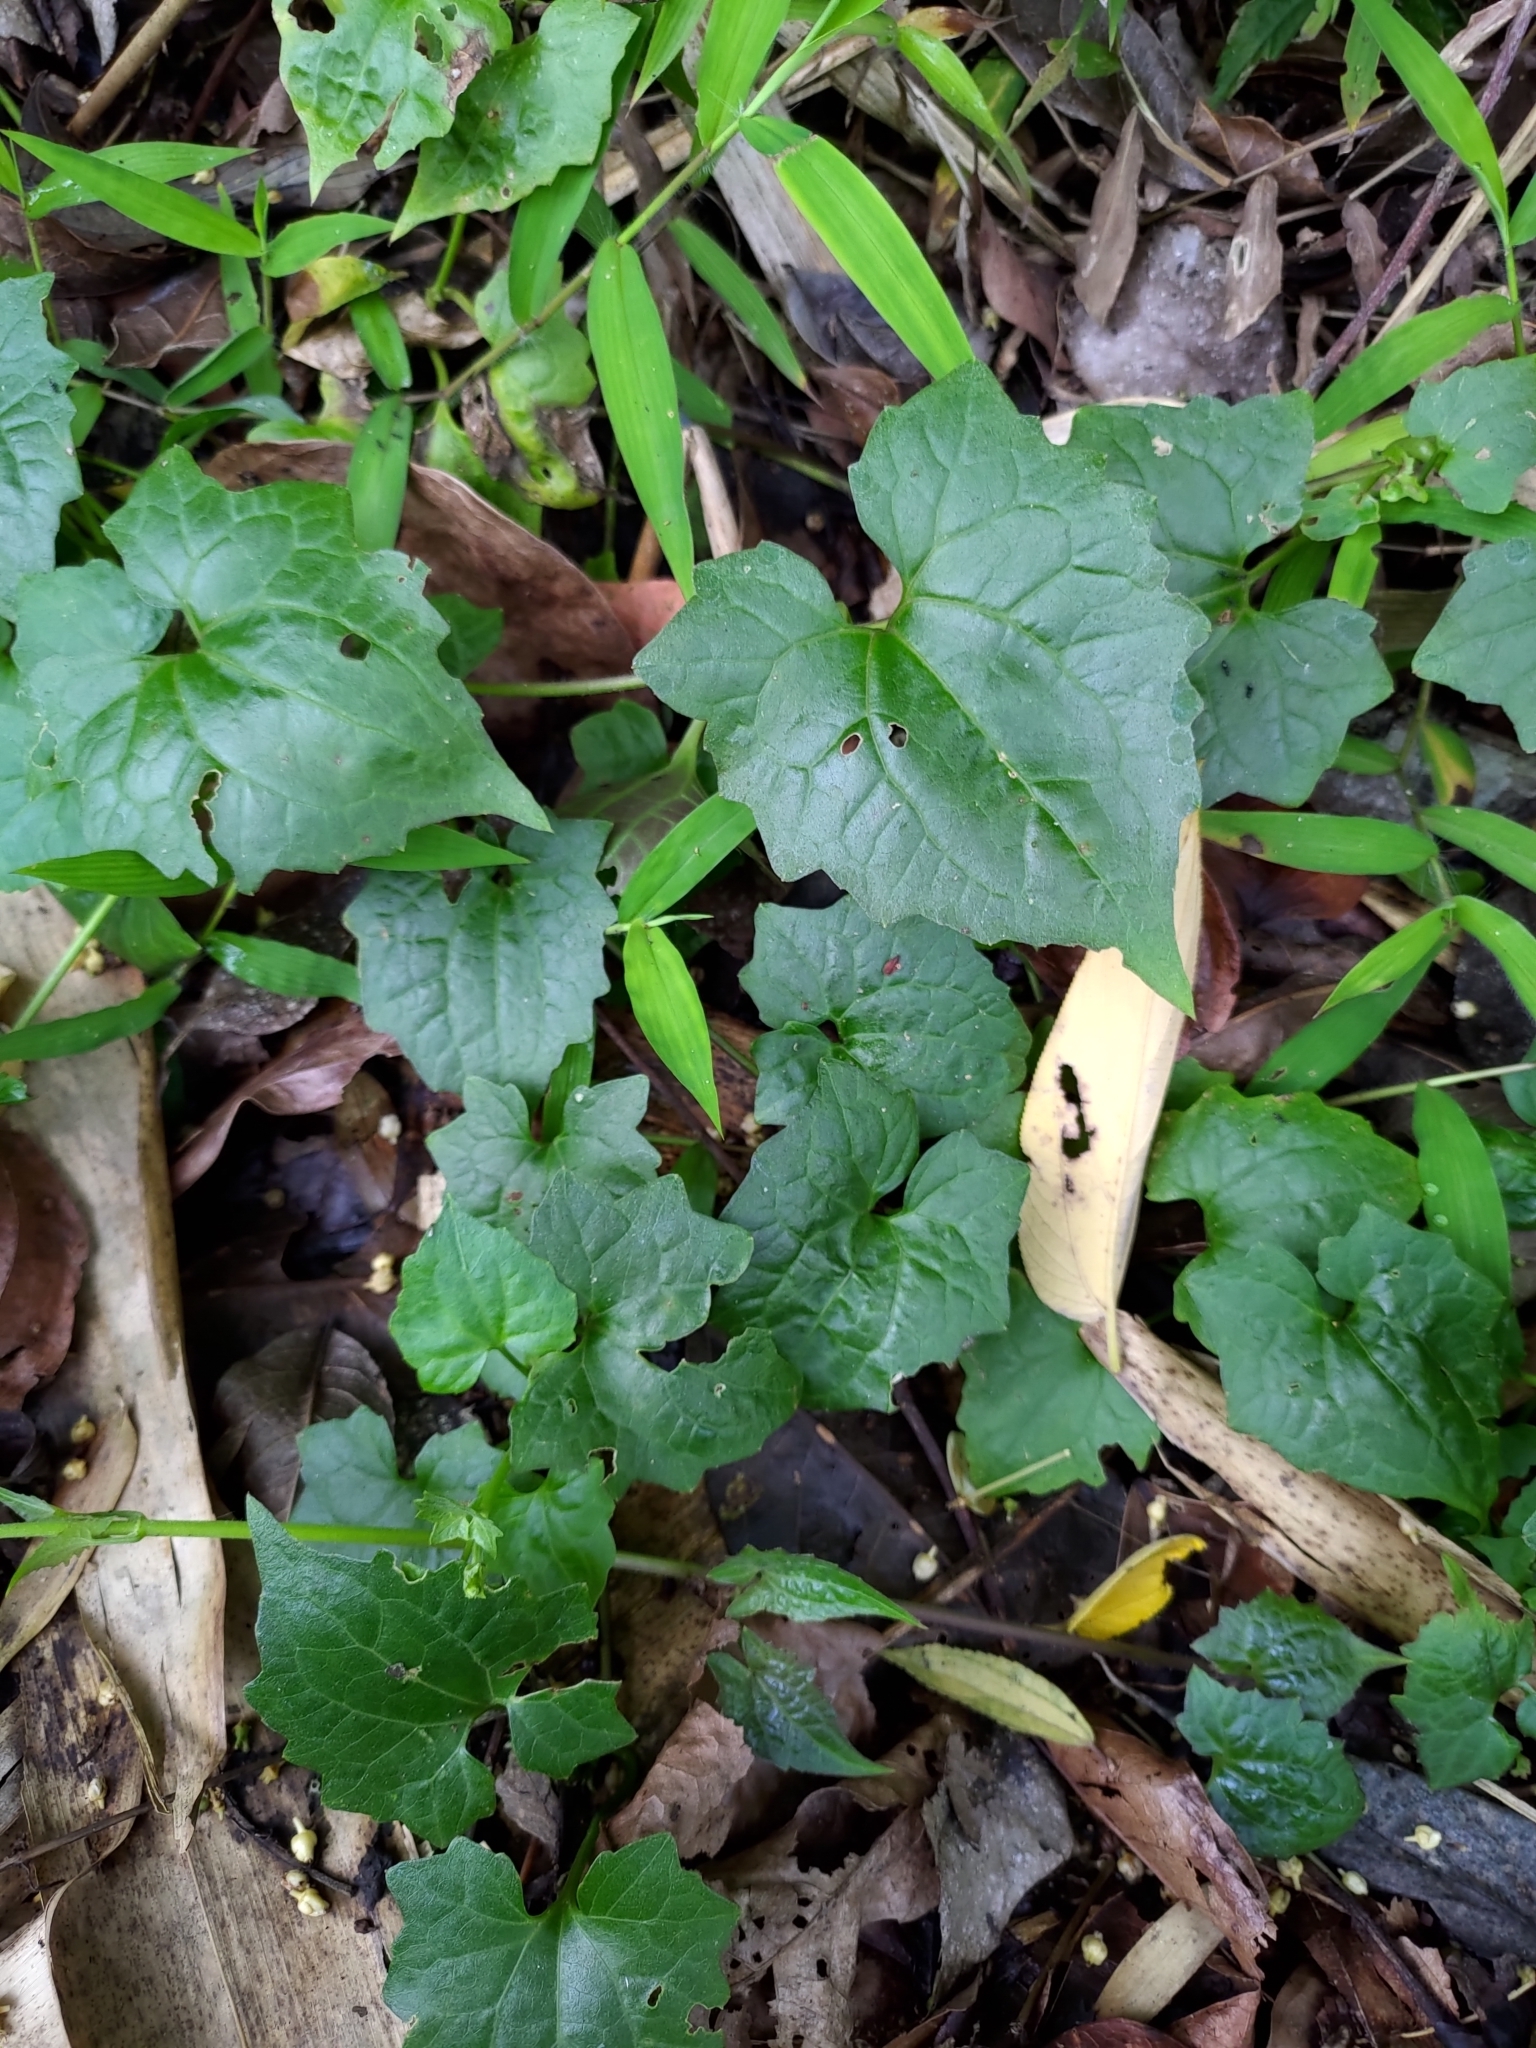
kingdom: Plantae
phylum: Tracheophyta
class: Magnoliopsida
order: Asterales
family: Asteraceae
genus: Mikania
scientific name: Mikania micrantha
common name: Mile-a-minute
